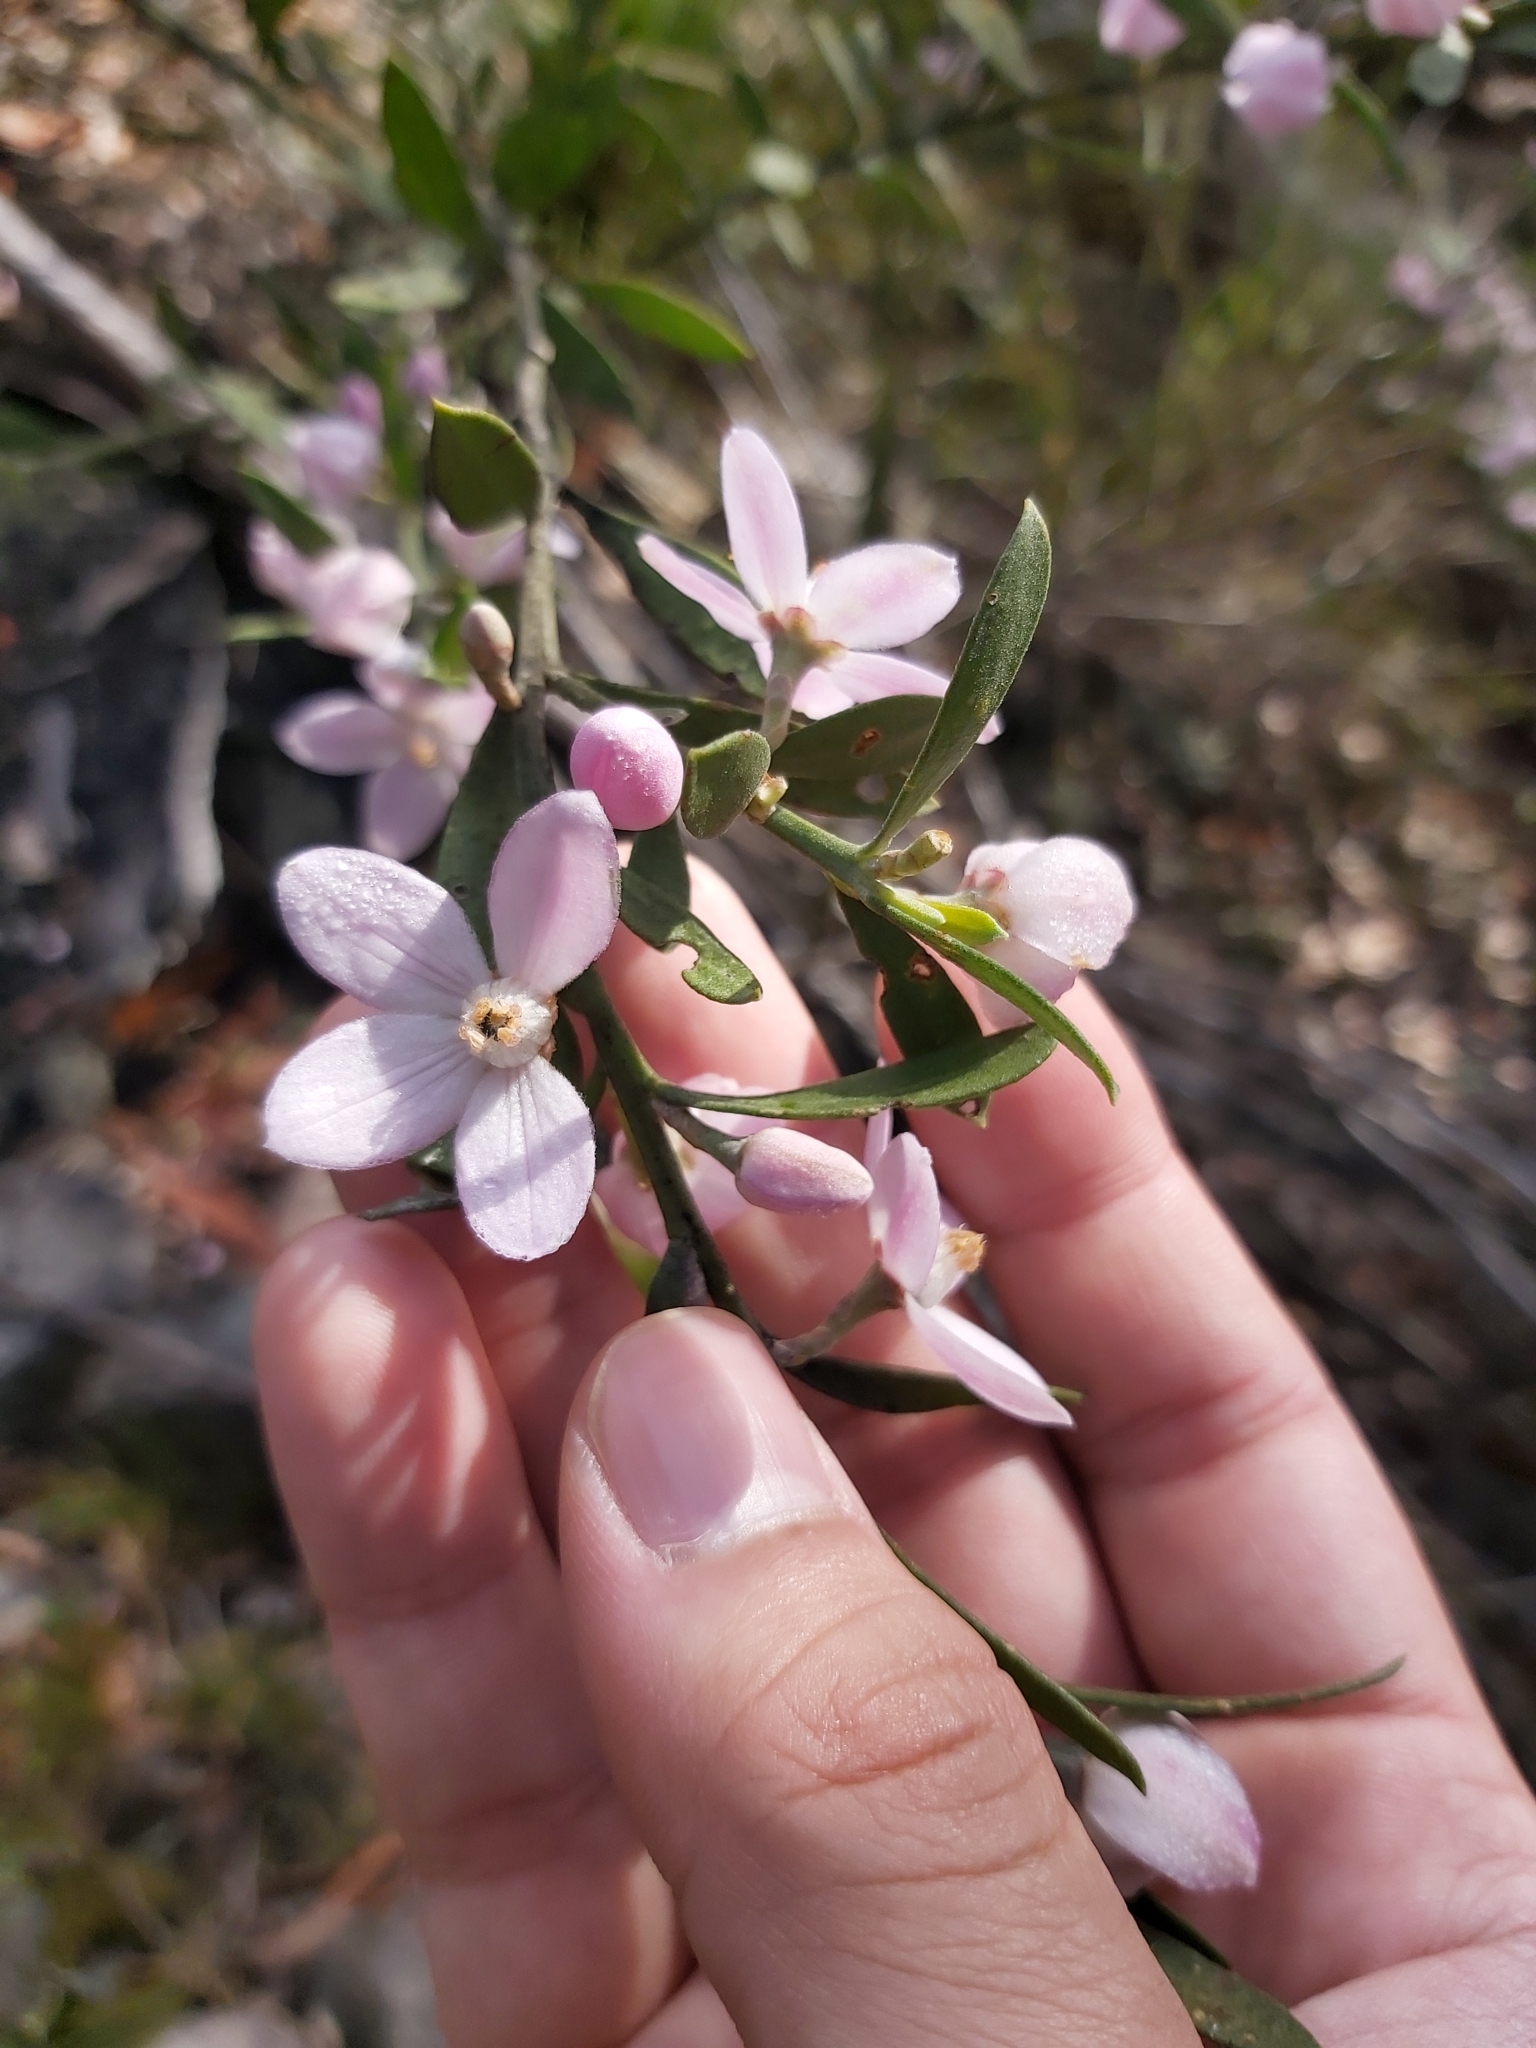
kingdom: Plantae
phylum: Tracheophyta
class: Magnoliopsida
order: Sapindales
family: Rutaceae
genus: Eriostemon
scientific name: Eriostemon australasius
